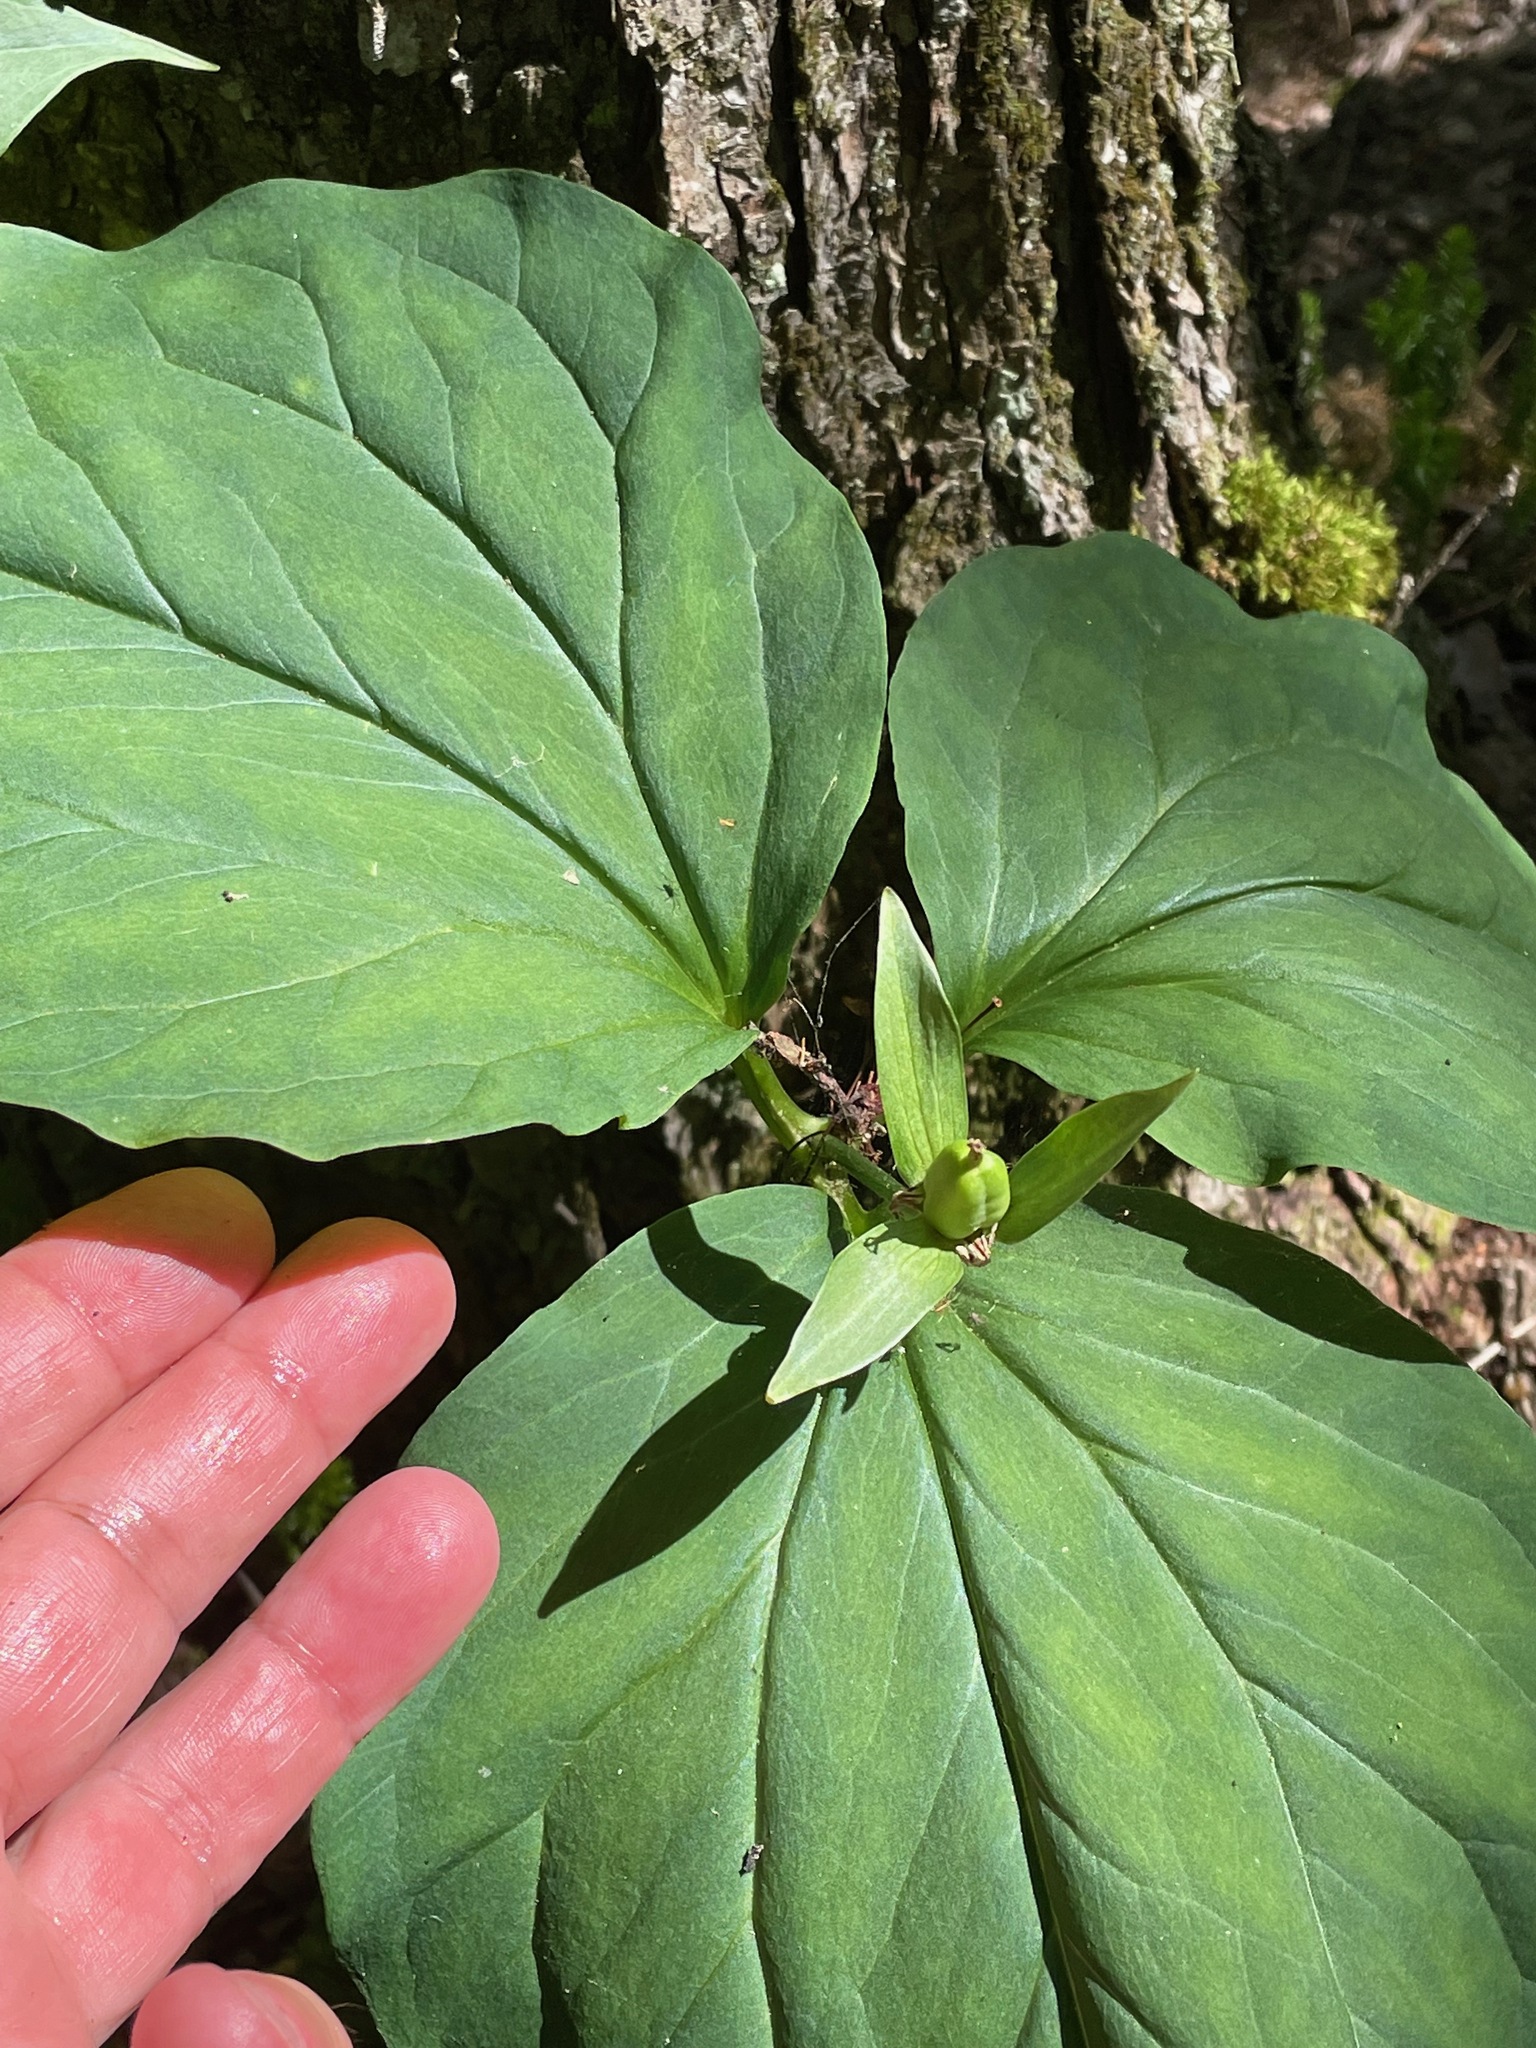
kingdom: Plantae
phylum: Tracheophyta
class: Liliopsida
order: Liliales
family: Melanthiaceae
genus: Trillium
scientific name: Trillium undulatum
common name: Paint trillium
